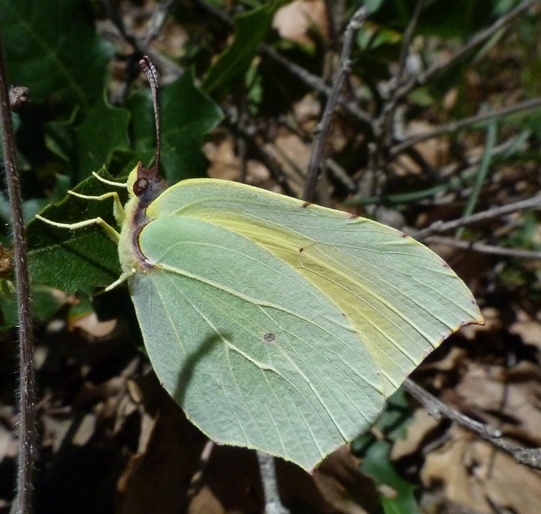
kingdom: Animalia
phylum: Arthropoda
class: Insecta
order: Lepidoptera
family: Pieridae
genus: Gonepteryx
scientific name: Gonepteryx cleopatra
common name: Cleopatra
